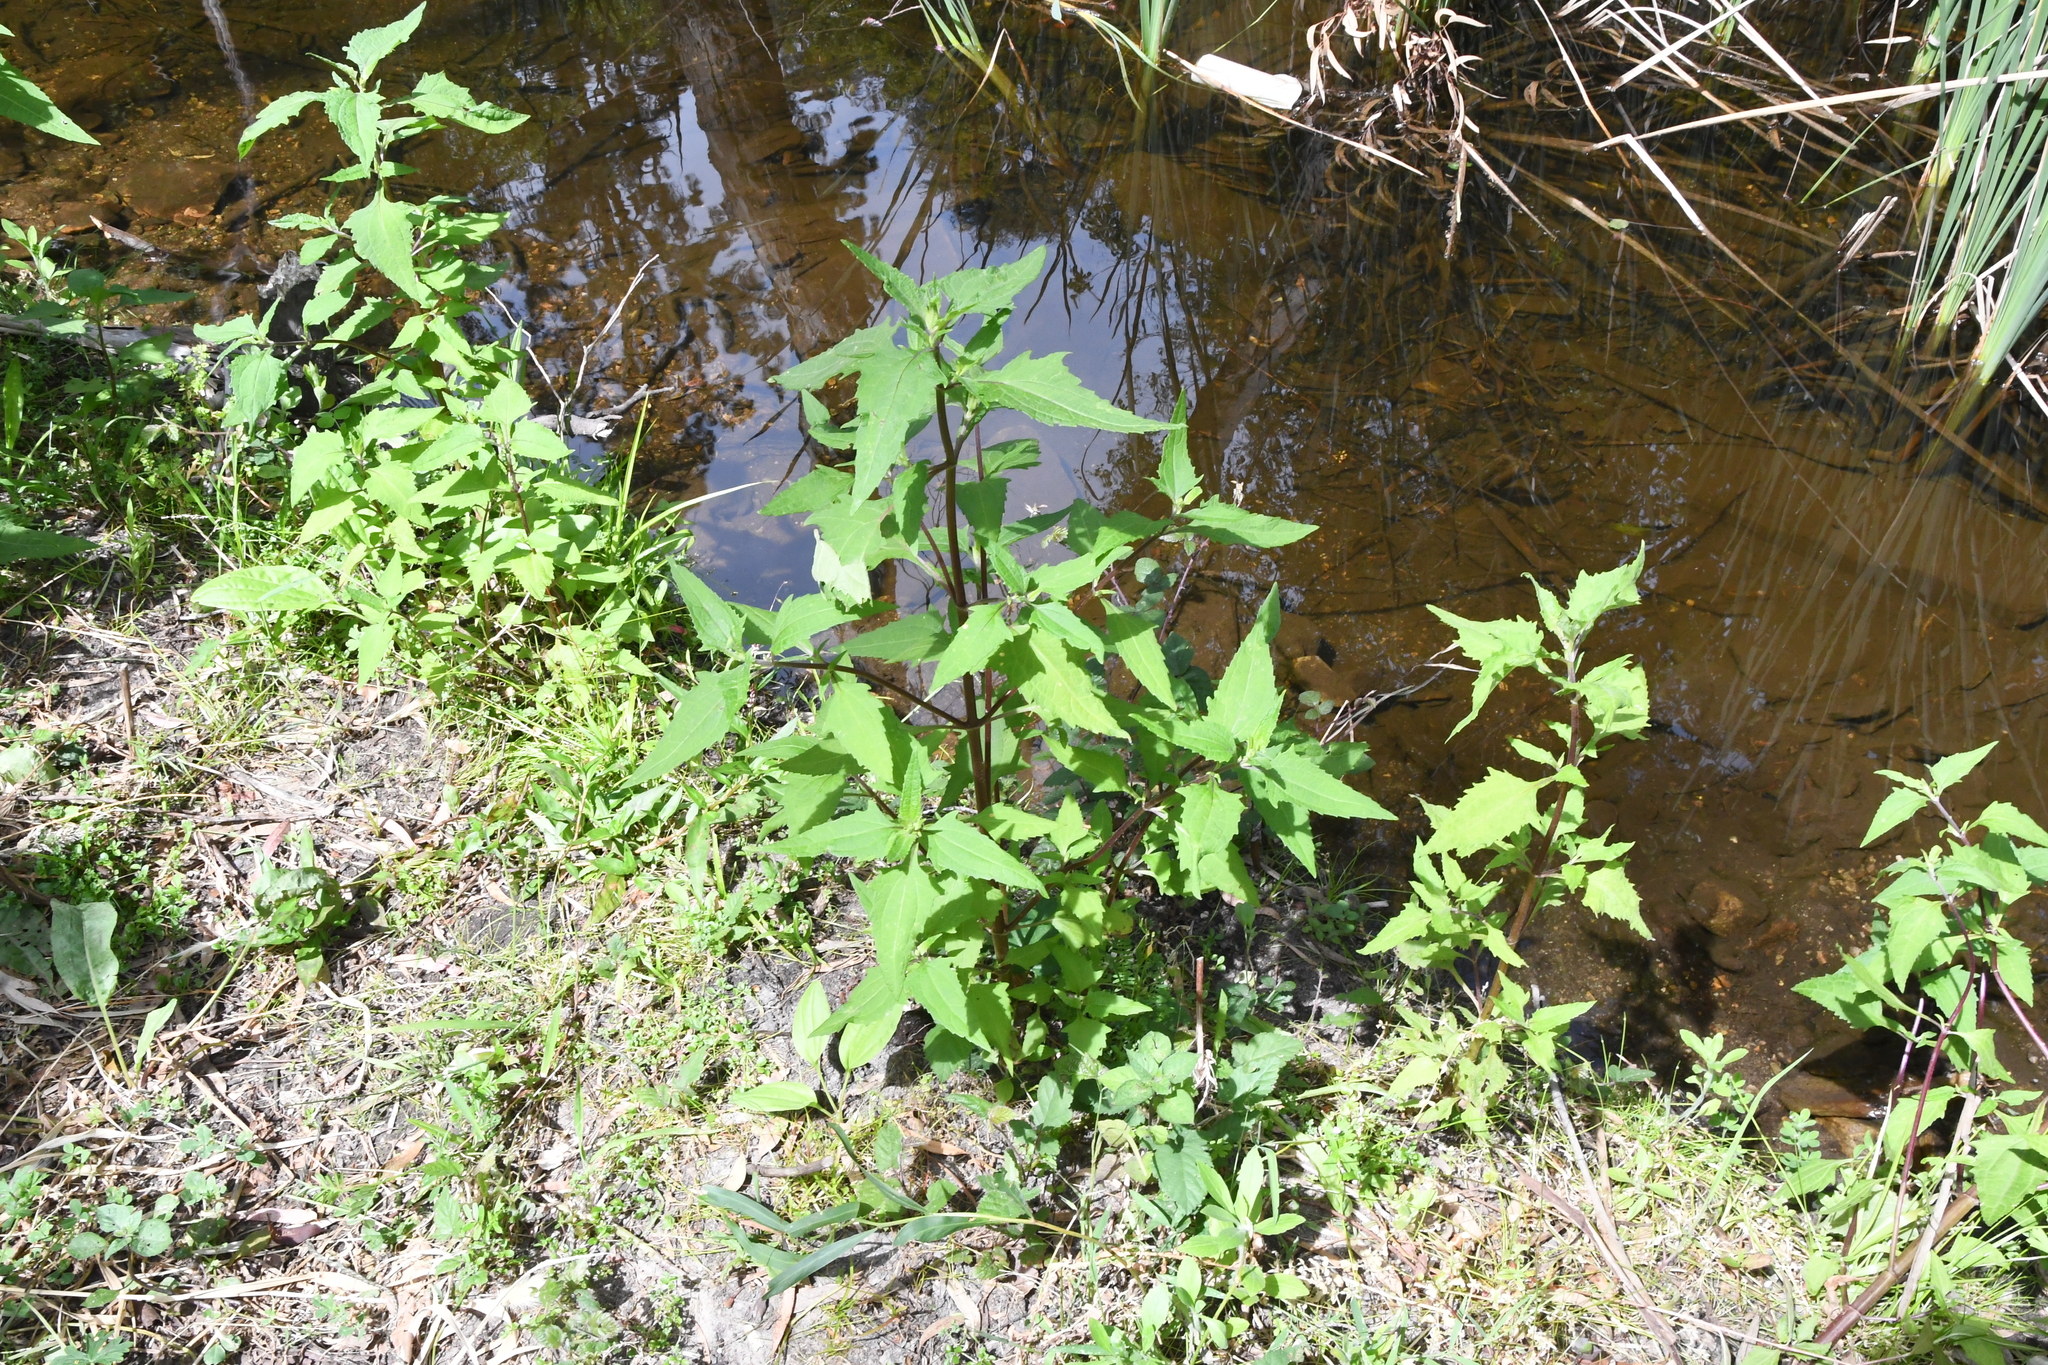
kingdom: Plantae
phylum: Tracheophyta
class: Magnoliopsida
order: Asterales
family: Asteraceae
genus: Sigesbeckia
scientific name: Sigesbeckia orientalis
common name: Eastern st paul's-wort
